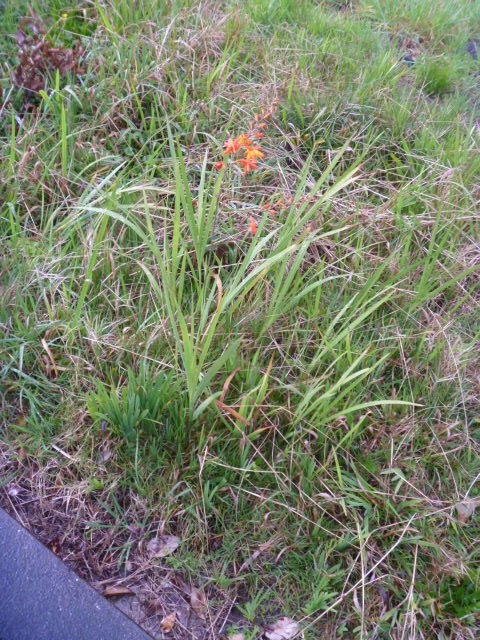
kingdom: Plantae
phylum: Tracheophyta
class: Liliopsida
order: Asparagales
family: Iridaceae
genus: Crocosmia
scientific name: Crocosmia crocosmiiflora
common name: Montbretia
